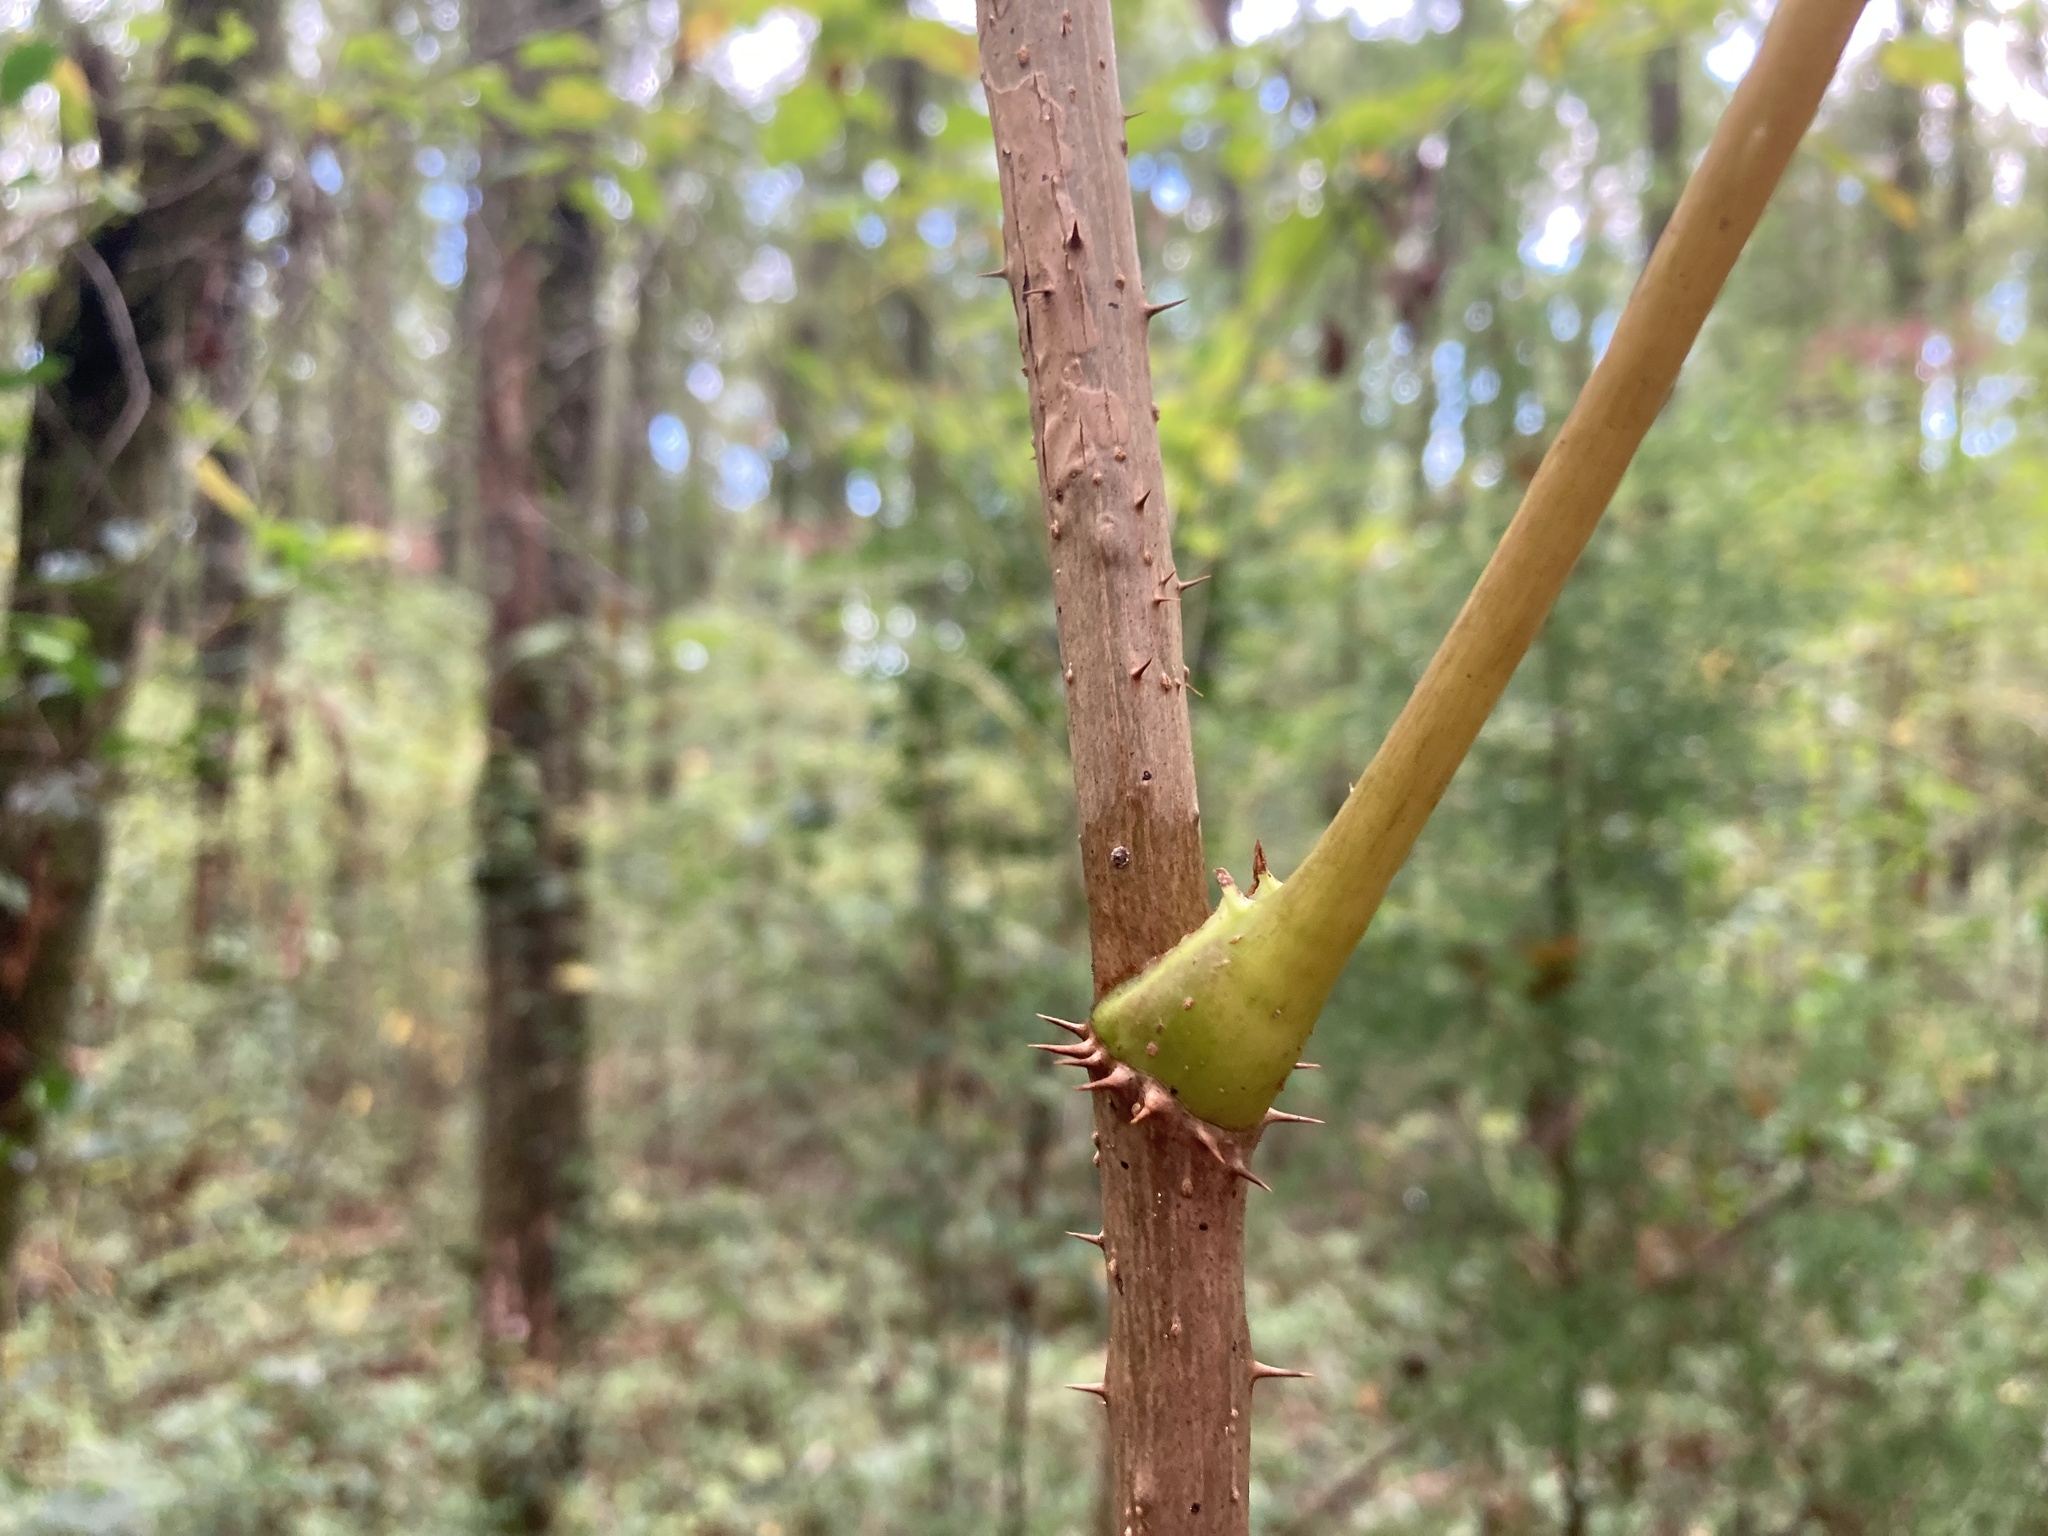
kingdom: Plantae
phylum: Tracheophyta
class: Magnoliopsida
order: Apiales
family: Araliaceae
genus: Aralia
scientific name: Aralia spinosa
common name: Hercules'-club
